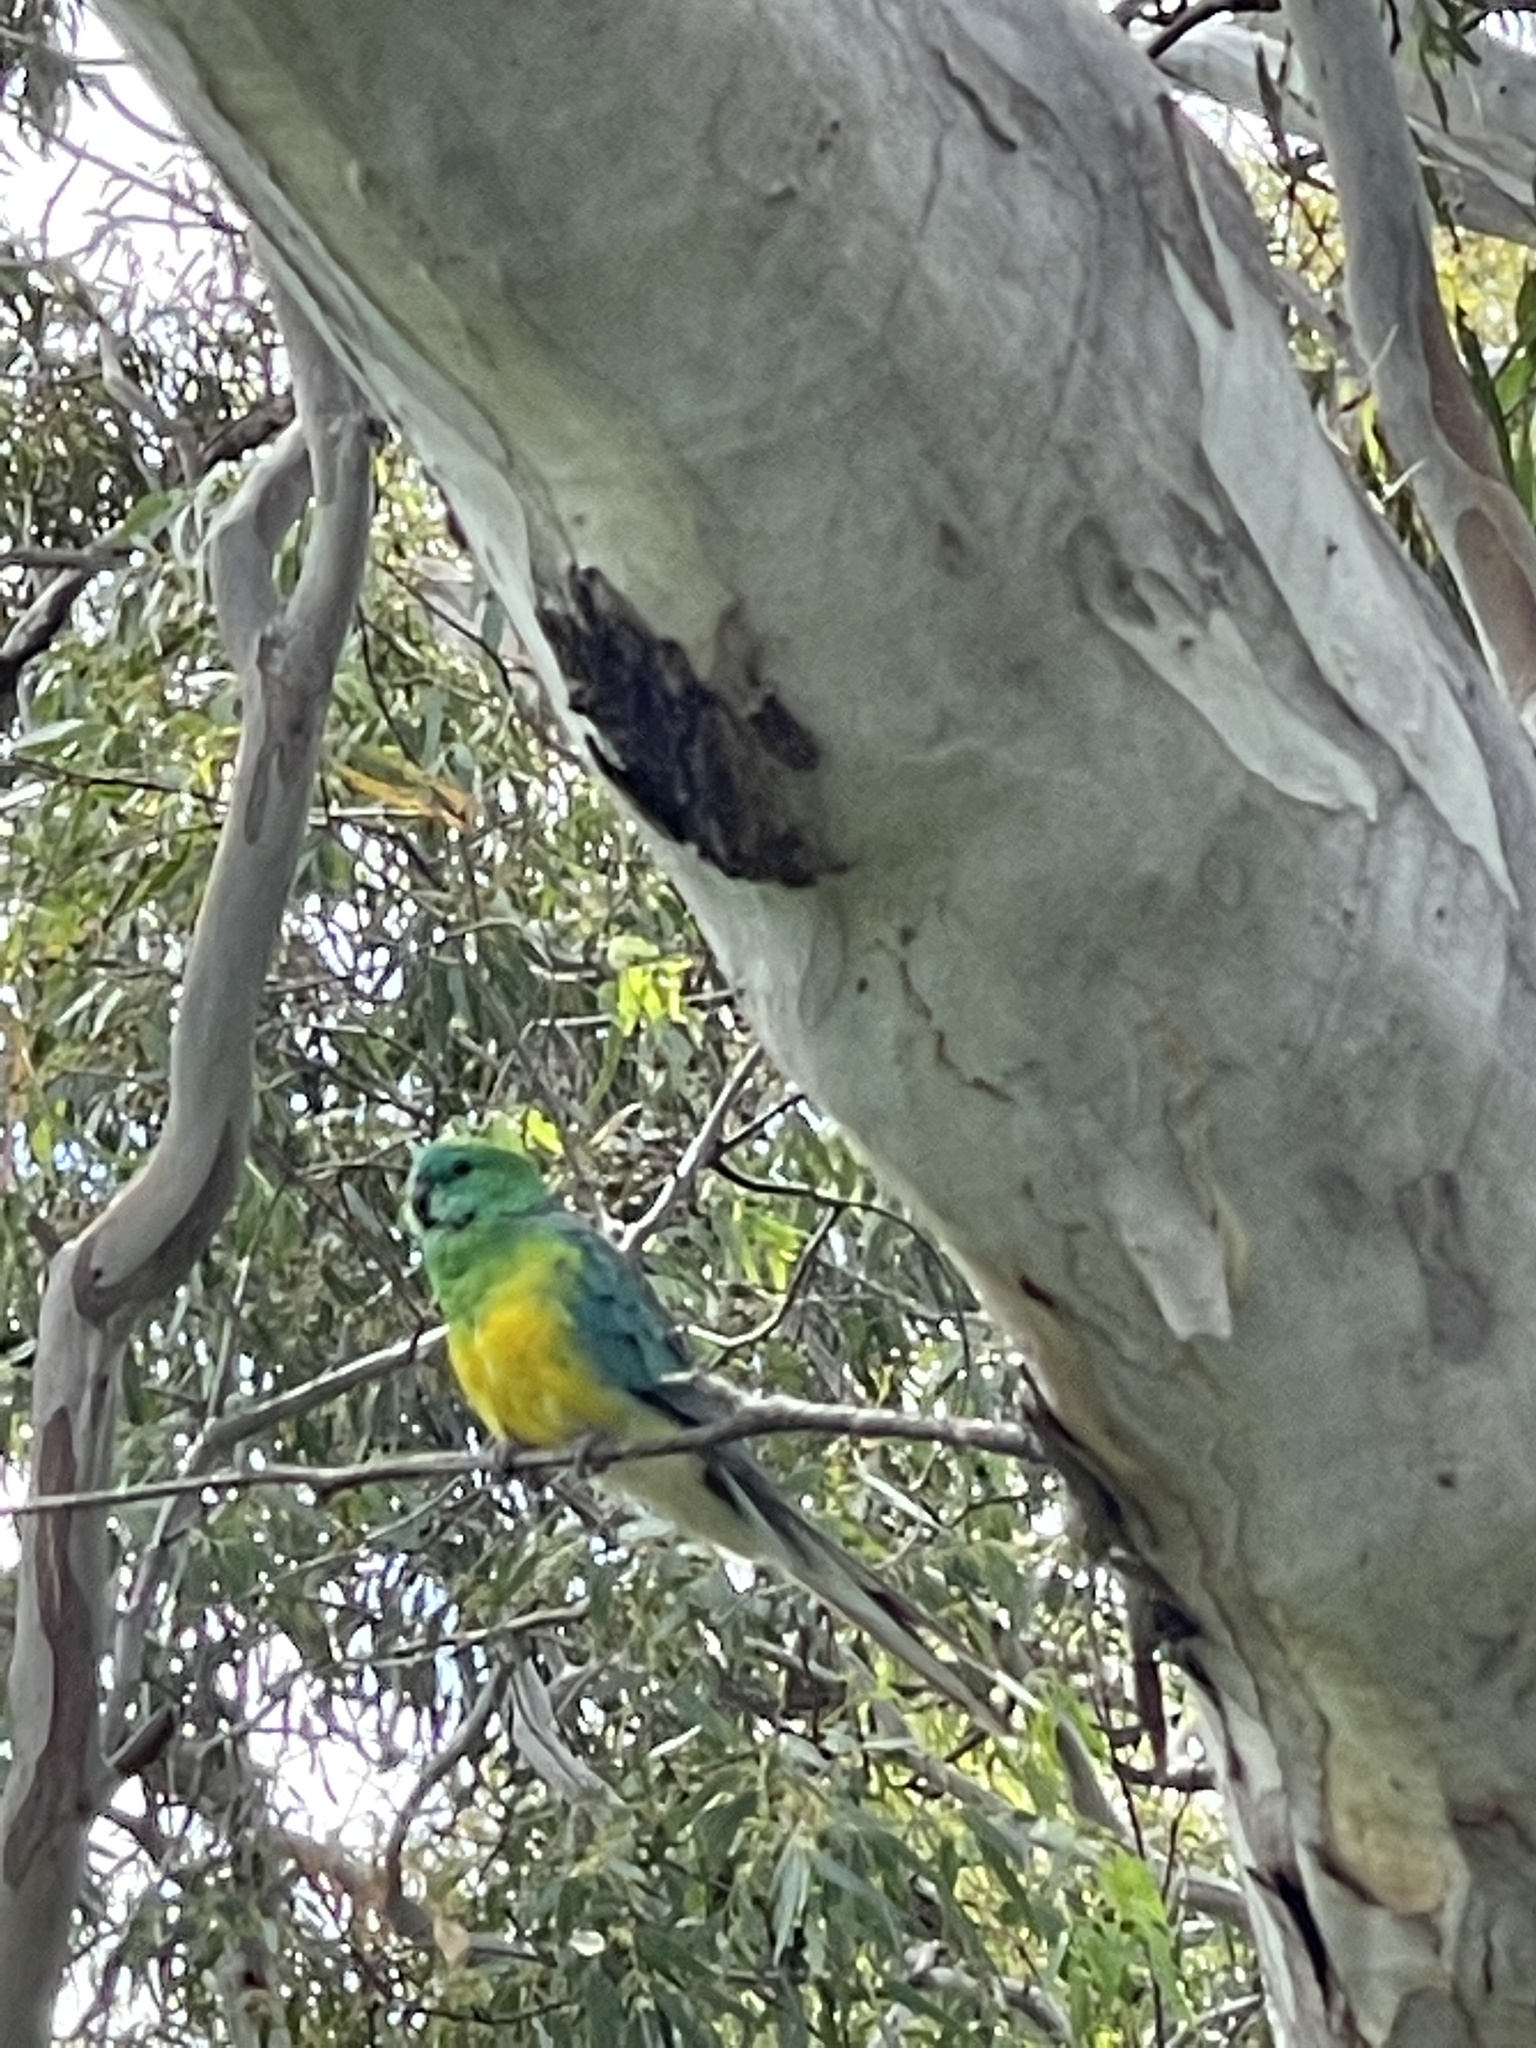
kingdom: Animalia
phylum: Chordata
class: Aves
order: Psittaciformes
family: Psittacidae
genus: Psephotus
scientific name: Psephotus haematonotus
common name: Red-rumped parrot
